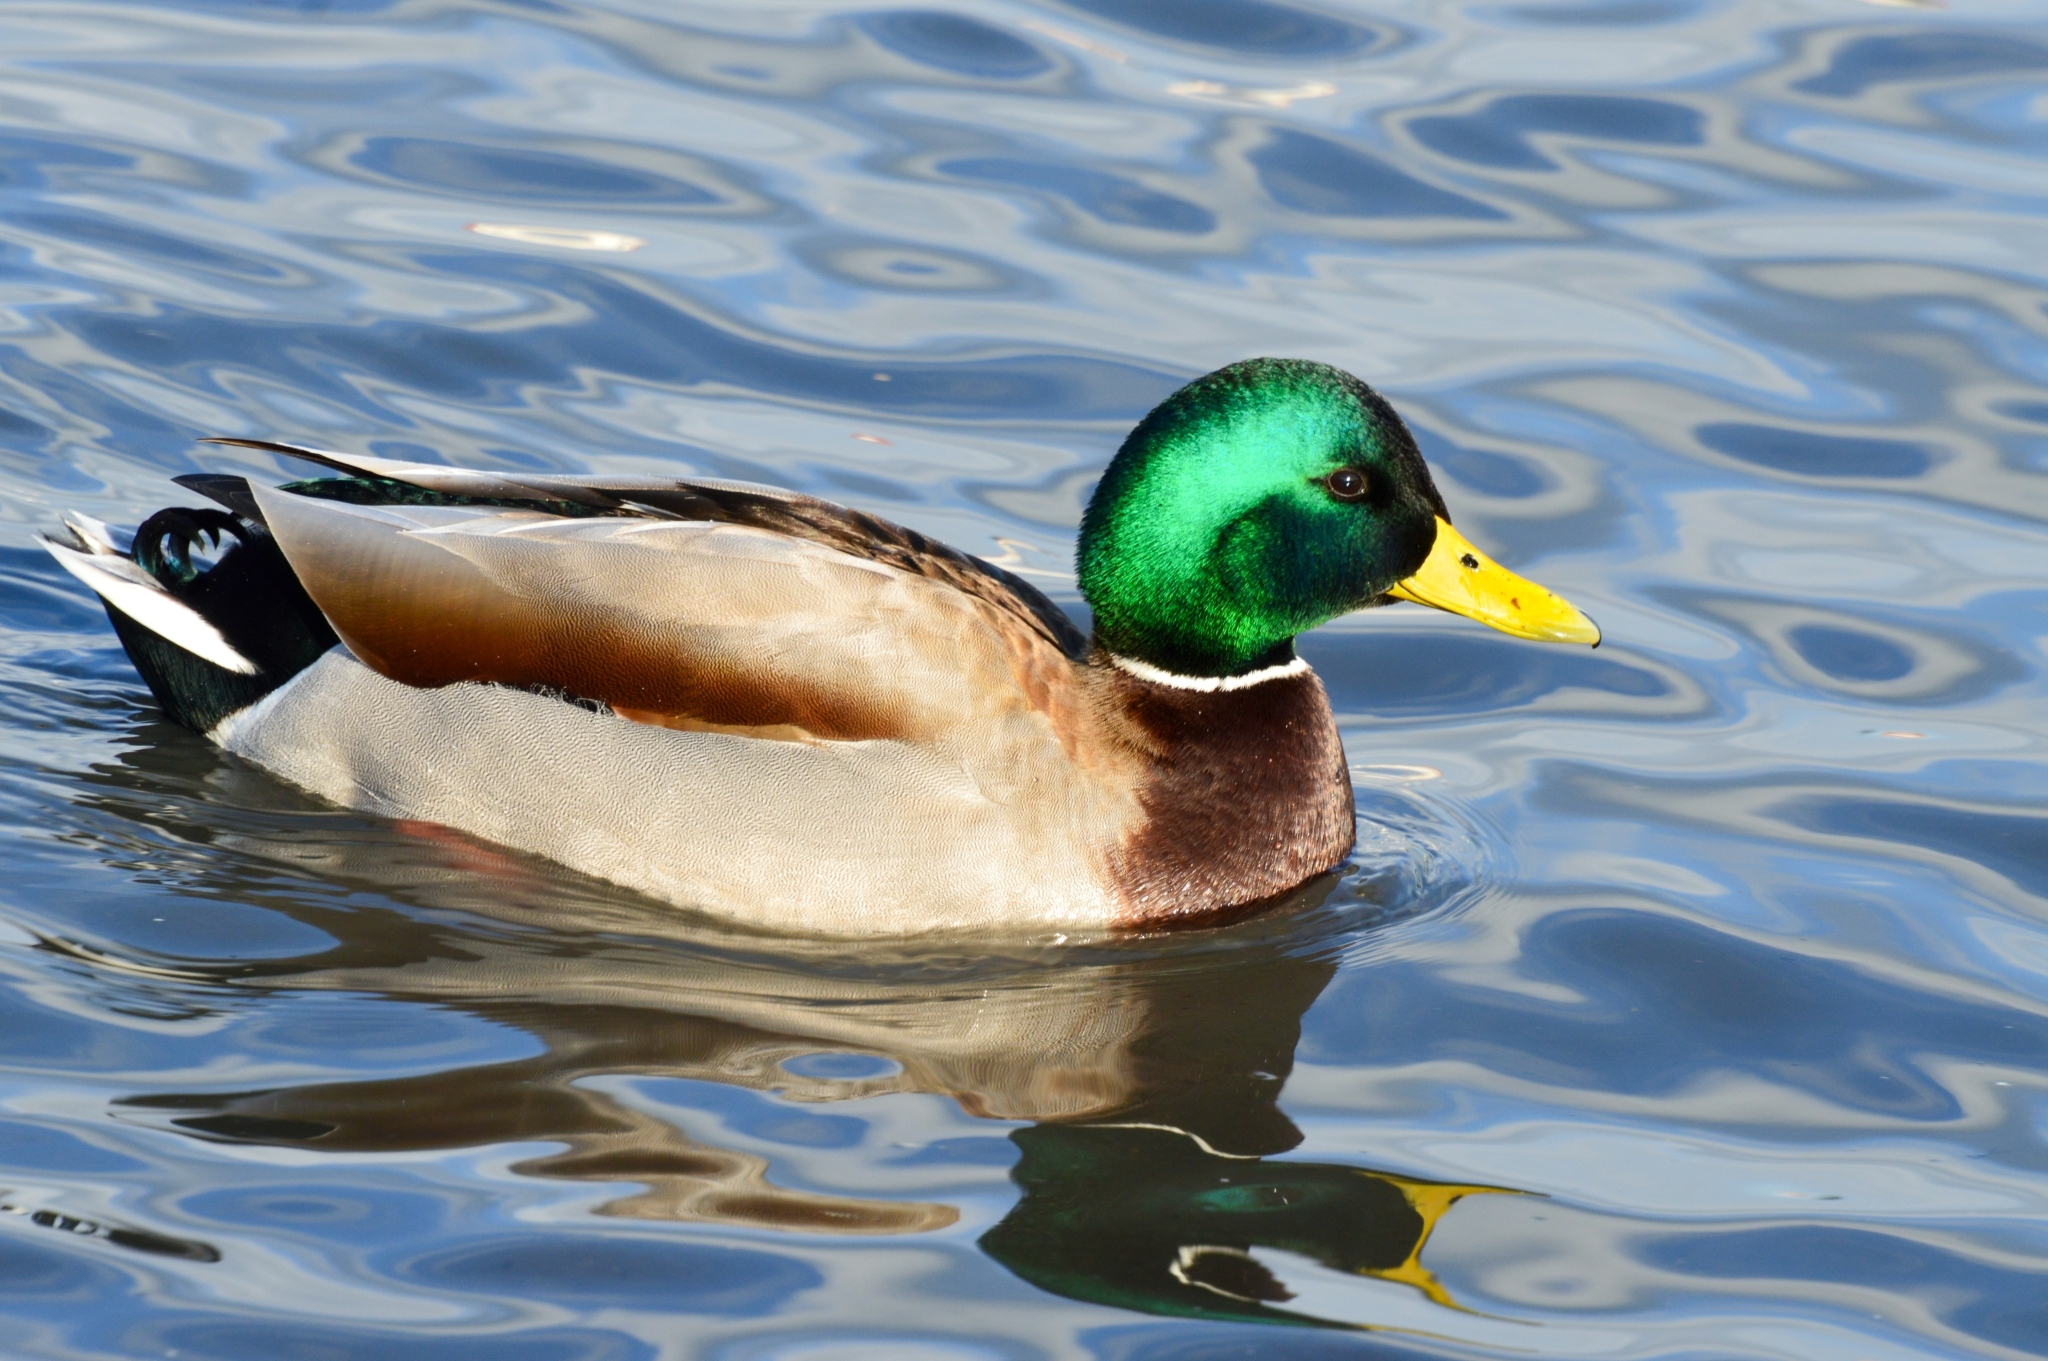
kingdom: Animalia
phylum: Chordata
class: Aves
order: Anseriformes
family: Anatidae
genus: Anas
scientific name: Anas platyrhynchos
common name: Mallard
